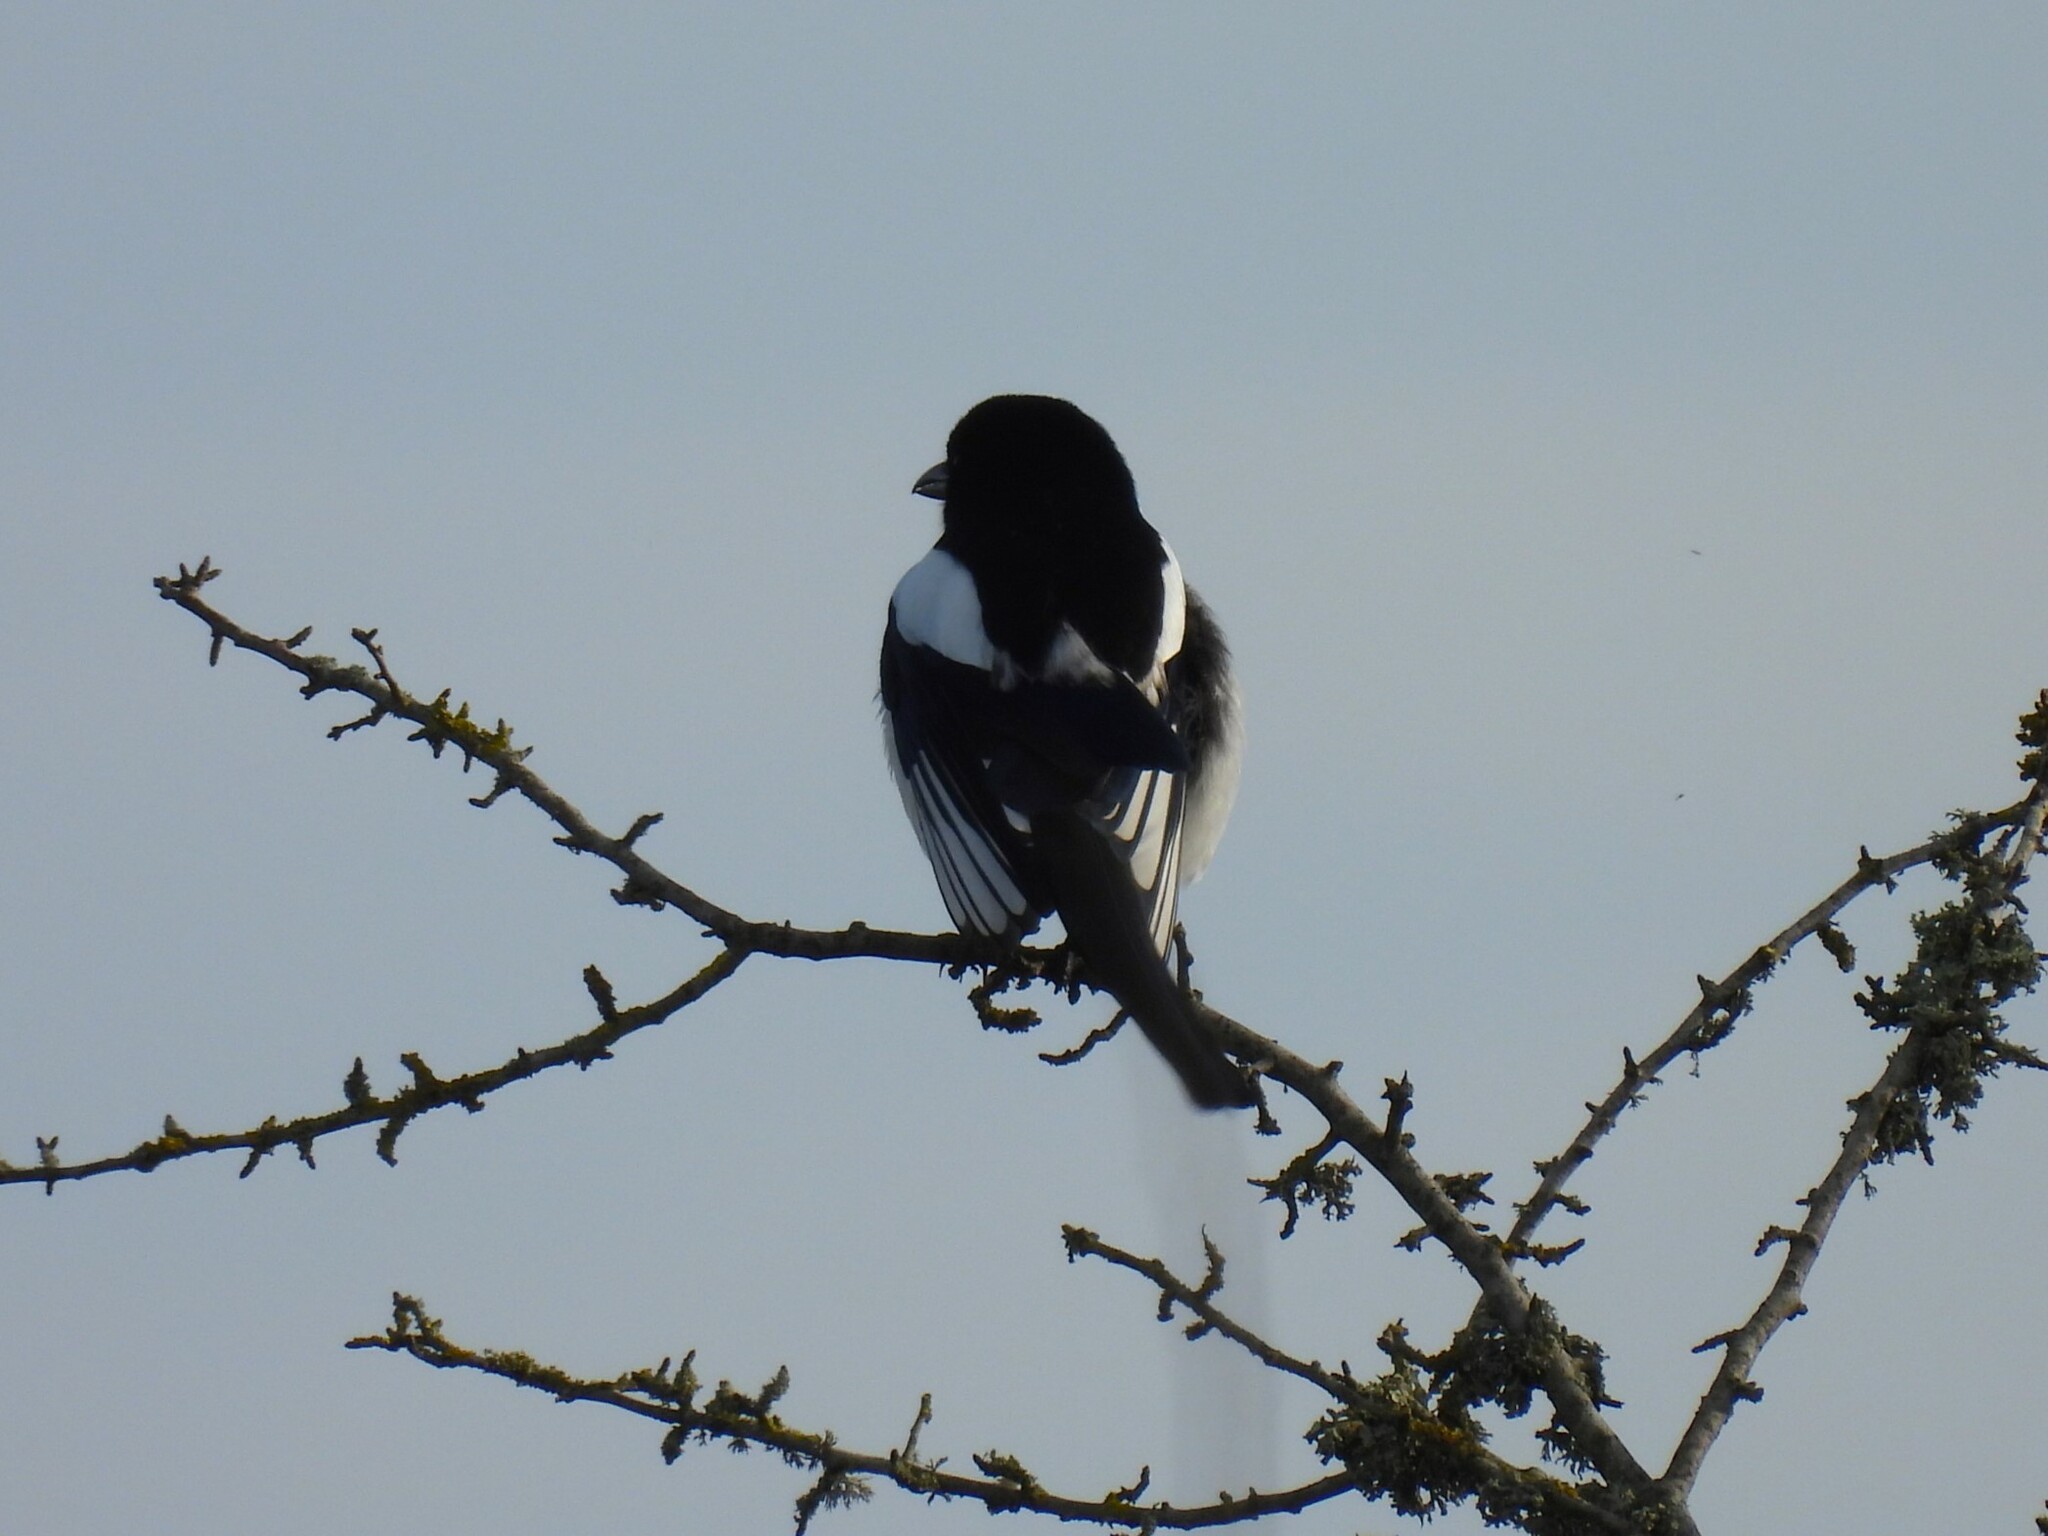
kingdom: Animalia
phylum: Chordata
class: Aves
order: Passeriformes
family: Corvidae
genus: Pica
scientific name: Pica pica
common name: Eurasian magpie
